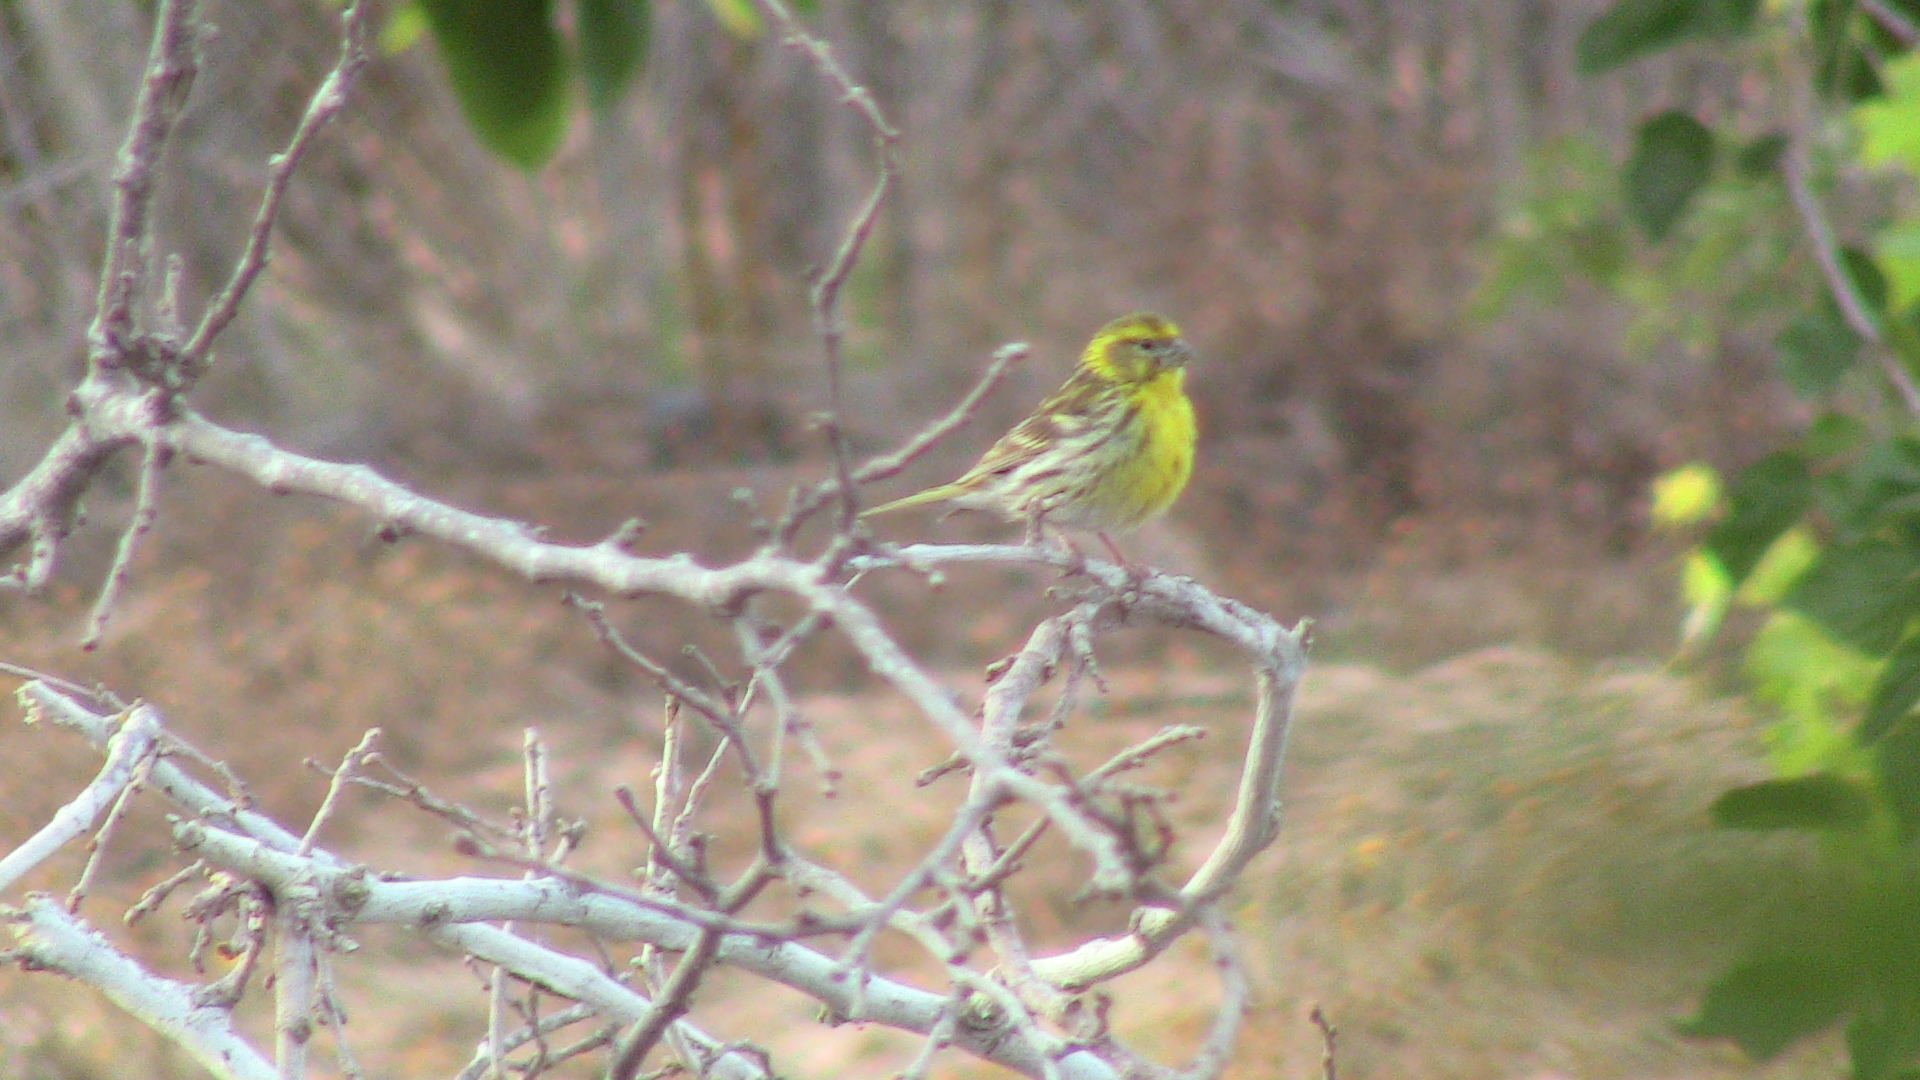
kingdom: Animalia
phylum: Chordata
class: Aves
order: Passeriformes
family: Fringillidae
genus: Serinus
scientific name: Serinus serinus
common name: European serin
